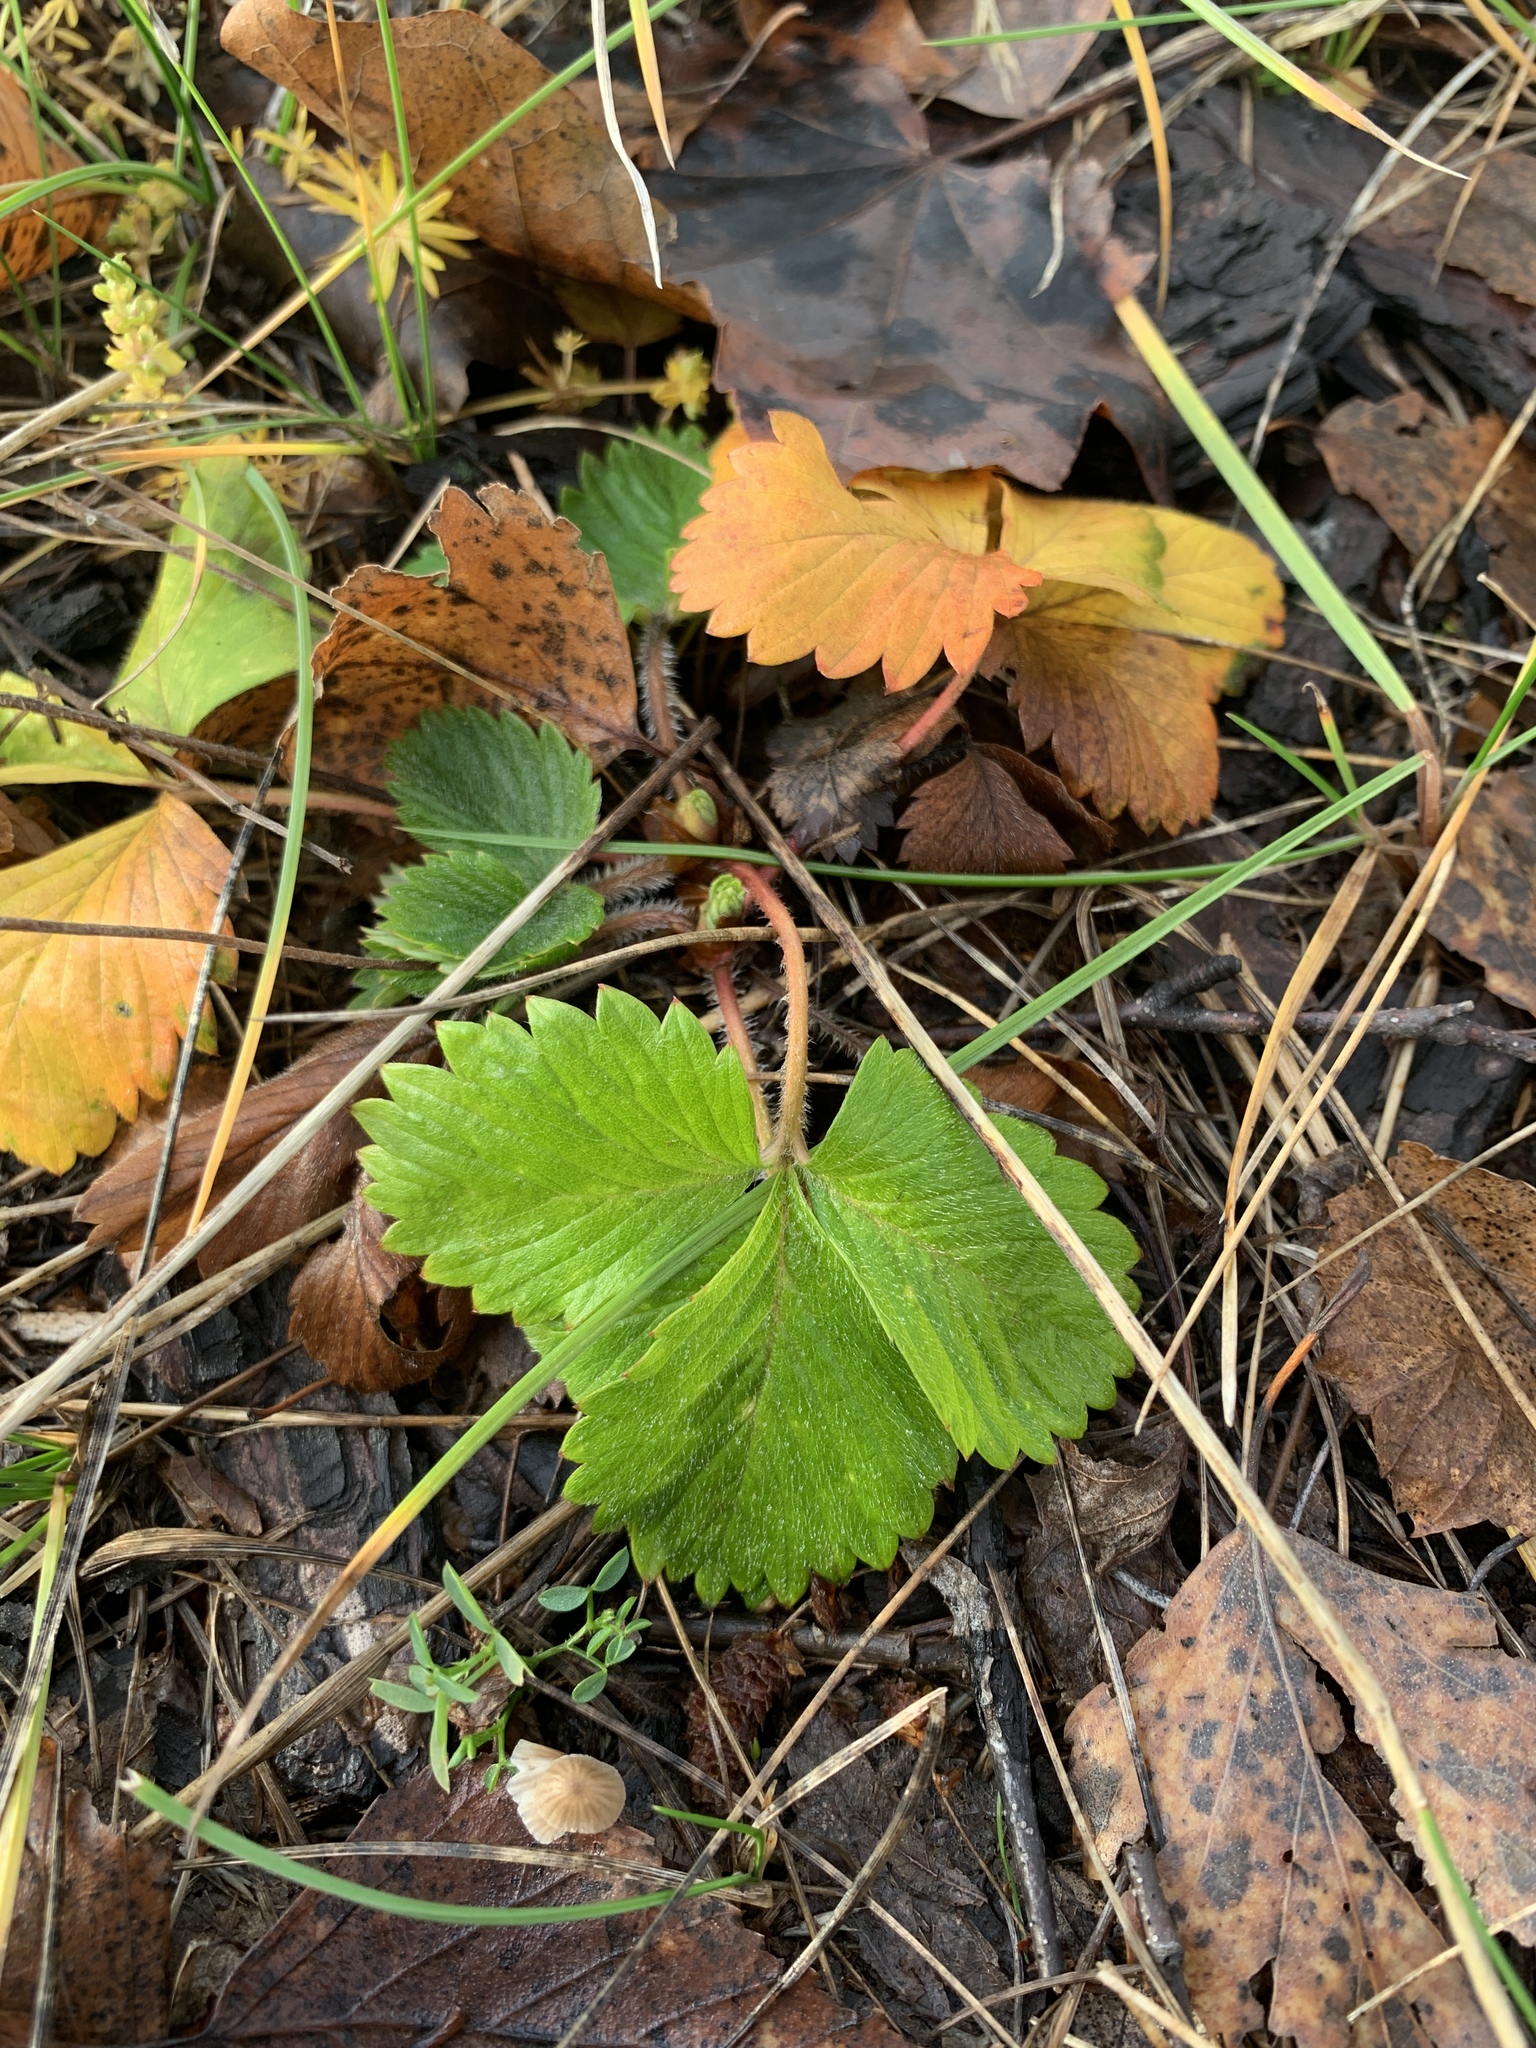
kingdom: Plantae
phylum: Tracheophyta
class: Magnoliopsida
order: Rosales
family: Rosaceae
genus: Fragaria
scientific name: Fragaria vesca
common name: Wild strawberry
